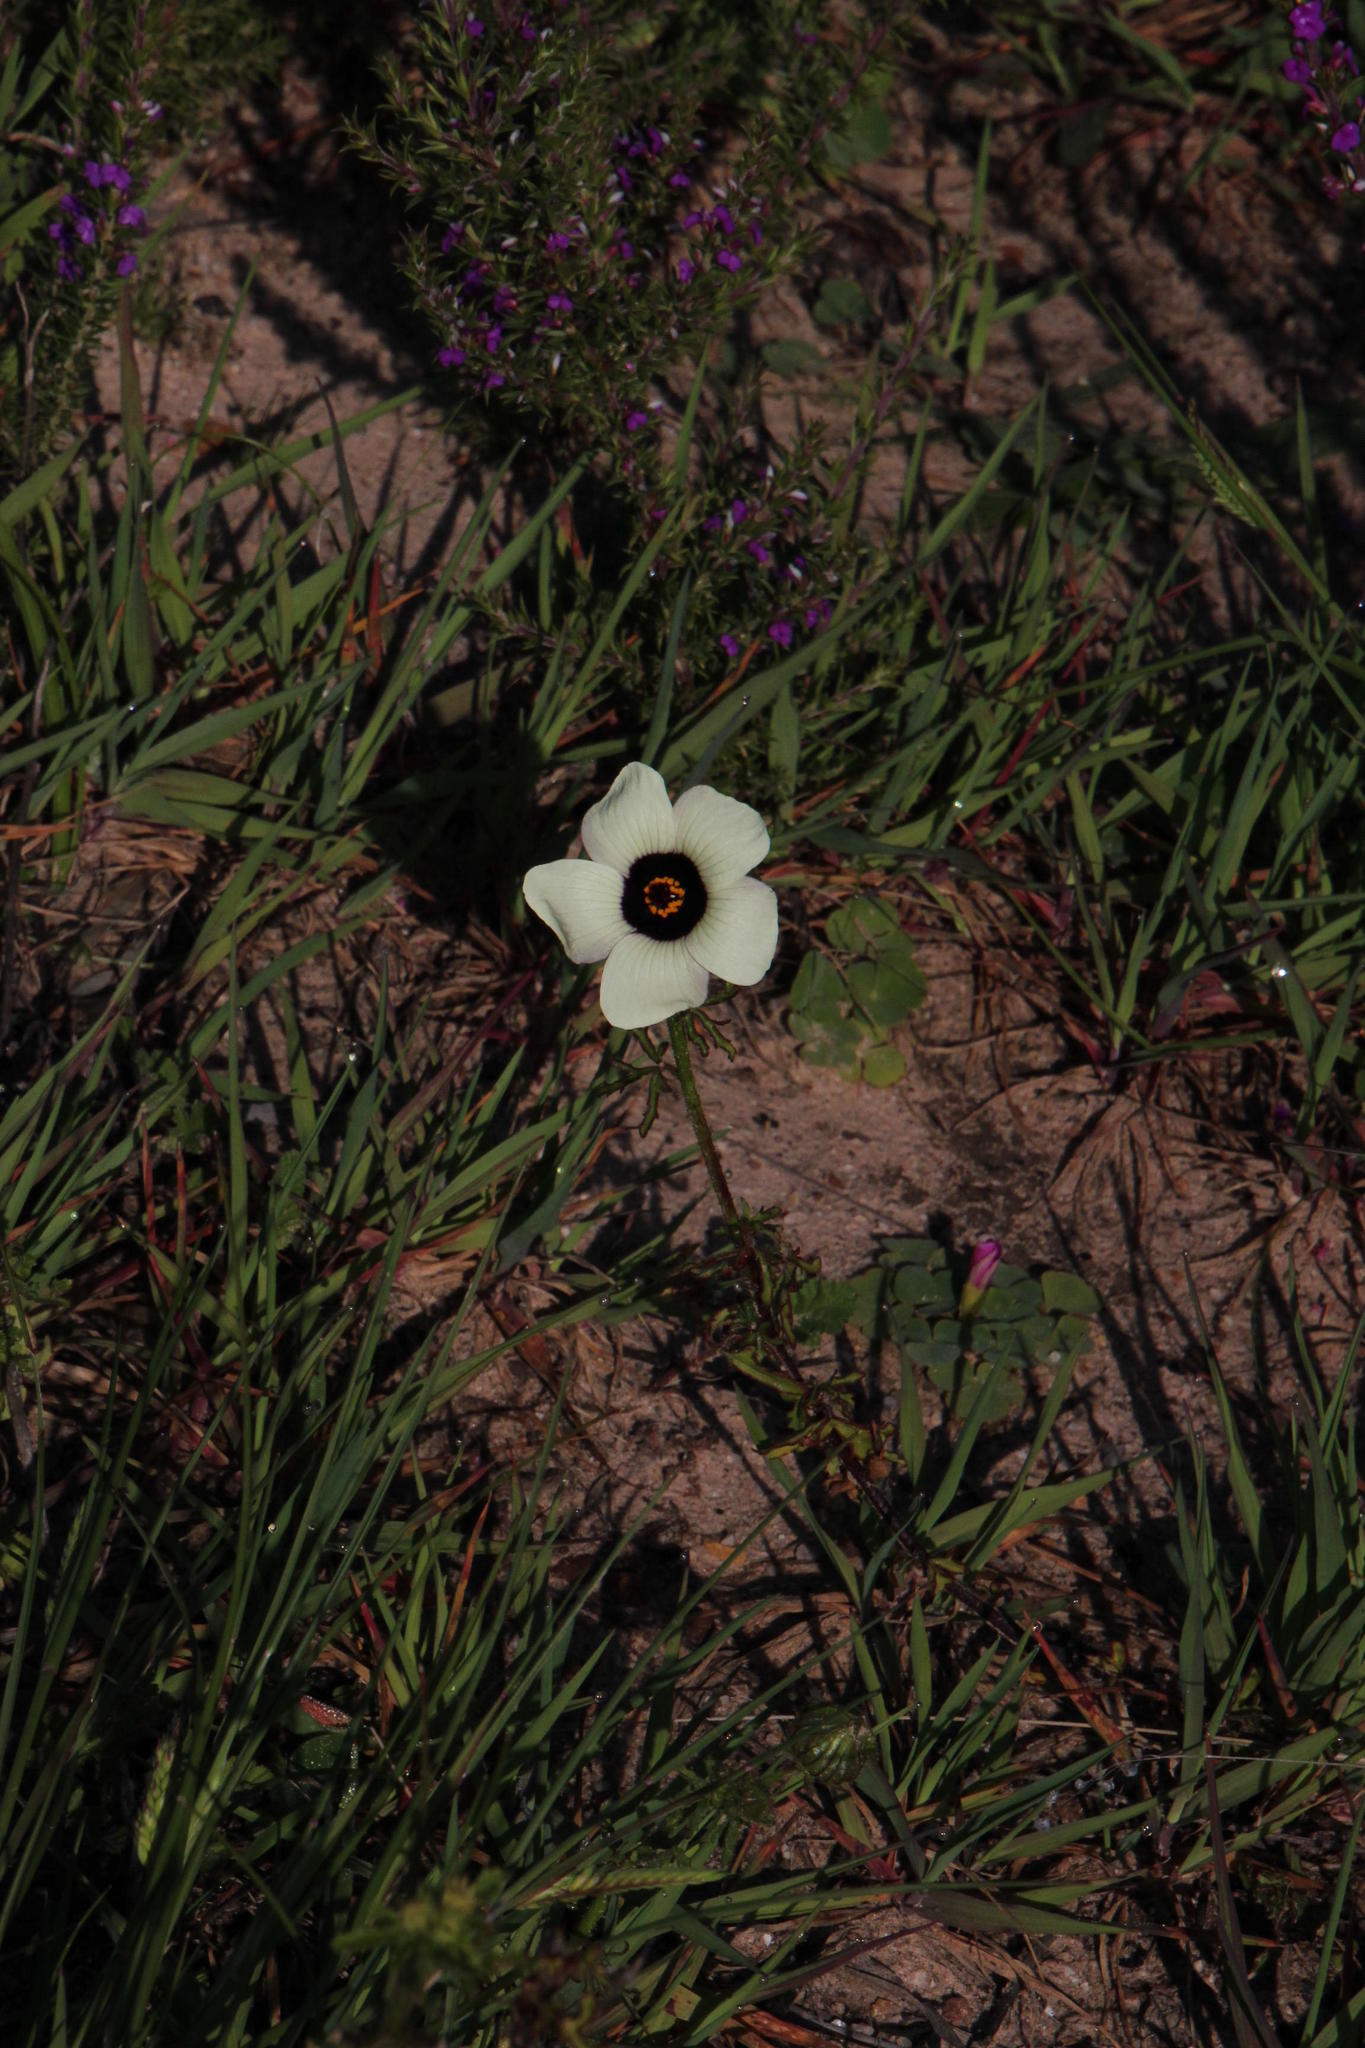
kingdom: Plantae
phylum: Tracheophyta
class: Magnoliopsida
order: Malvales
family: Malvaceae
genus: Hibiscus
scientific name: Hibiscus trionum
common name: Bladder ketmia
